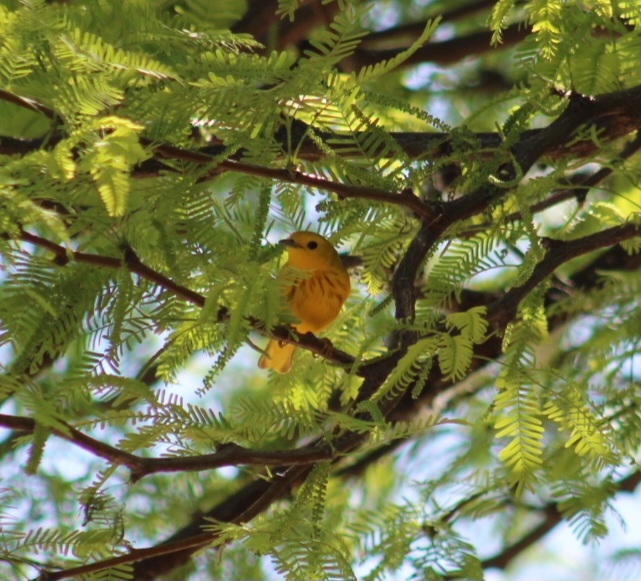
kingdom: Animalia
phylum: Chordata
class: Aves
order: Passeriformes
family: Parulidae
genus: Setophaga
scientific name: Setophaga petechia
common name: Yellow warbler
